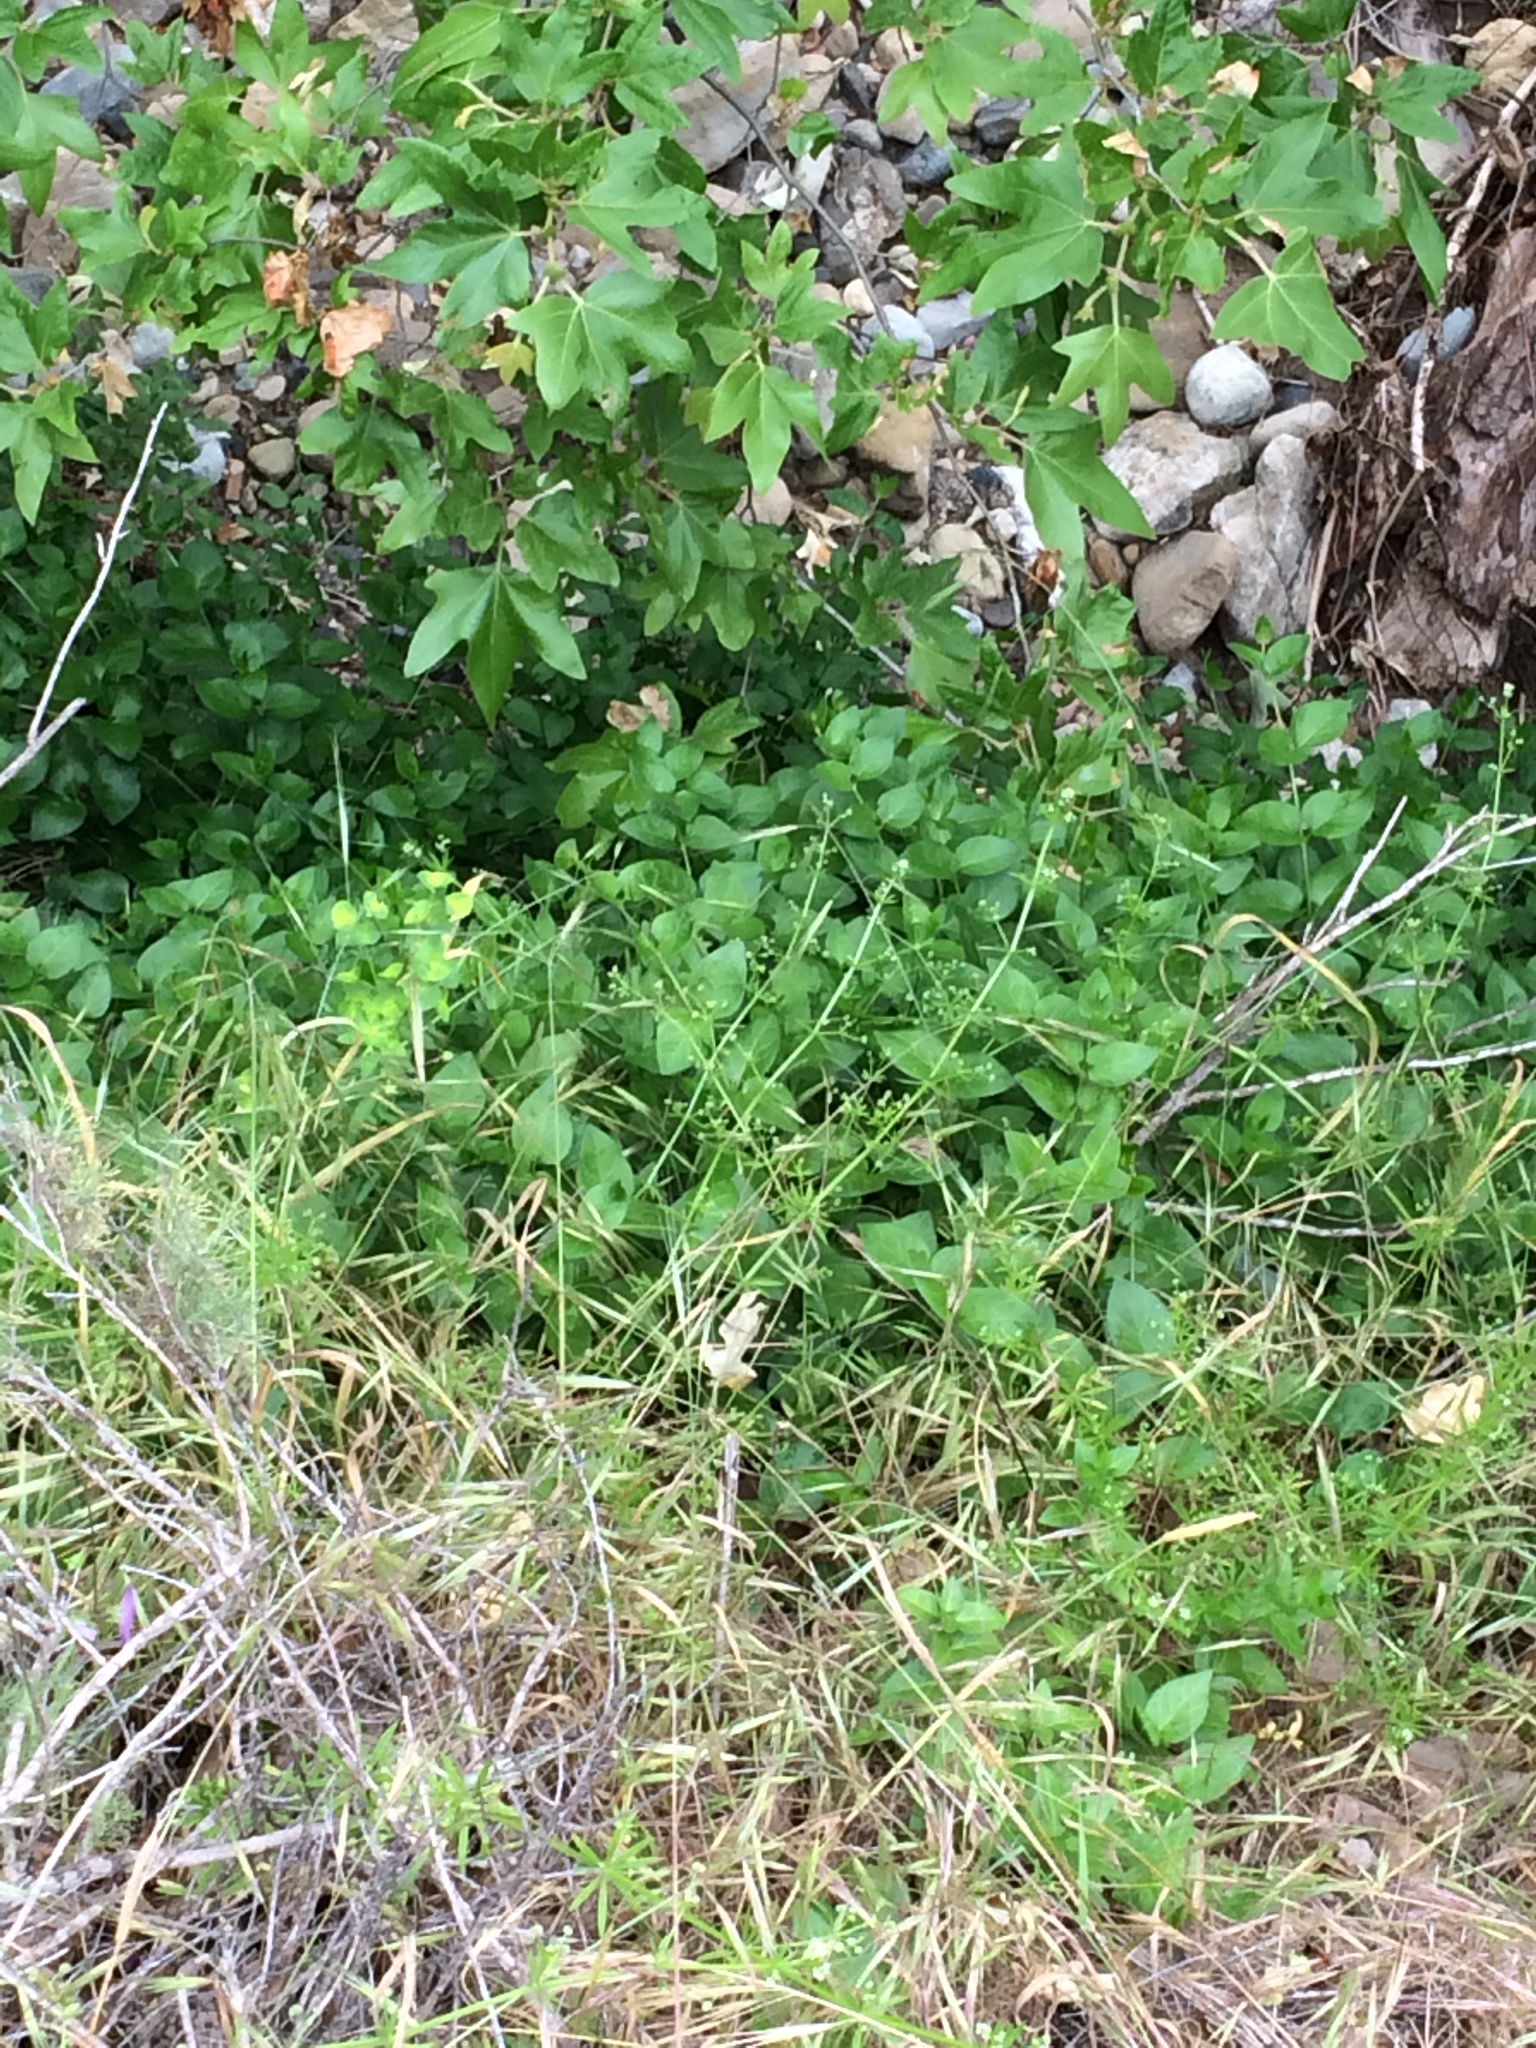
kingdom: Plantae
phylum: Tracheophyta
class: Magnoliopsida
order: Gentianales
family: Apocynaceae
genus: Vinca
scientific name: Vinca major
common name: Greater periwinkle
